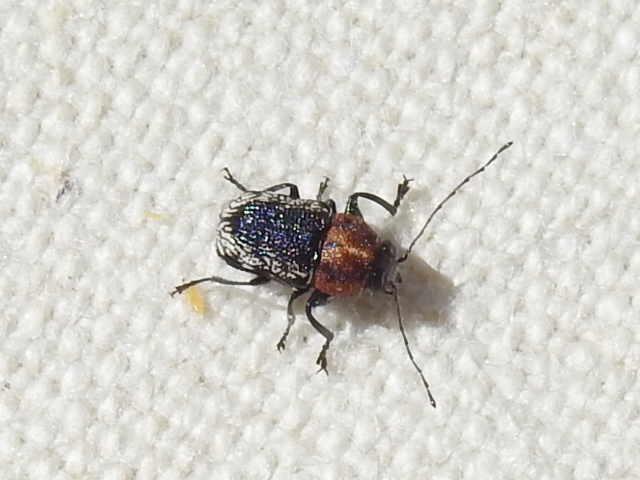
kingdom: Animalia
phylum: Arthropoda
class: Insecta
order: Coleoptera
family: Chrysomelidae
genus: Pachybrachis
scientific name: Pachybrachis luridus
